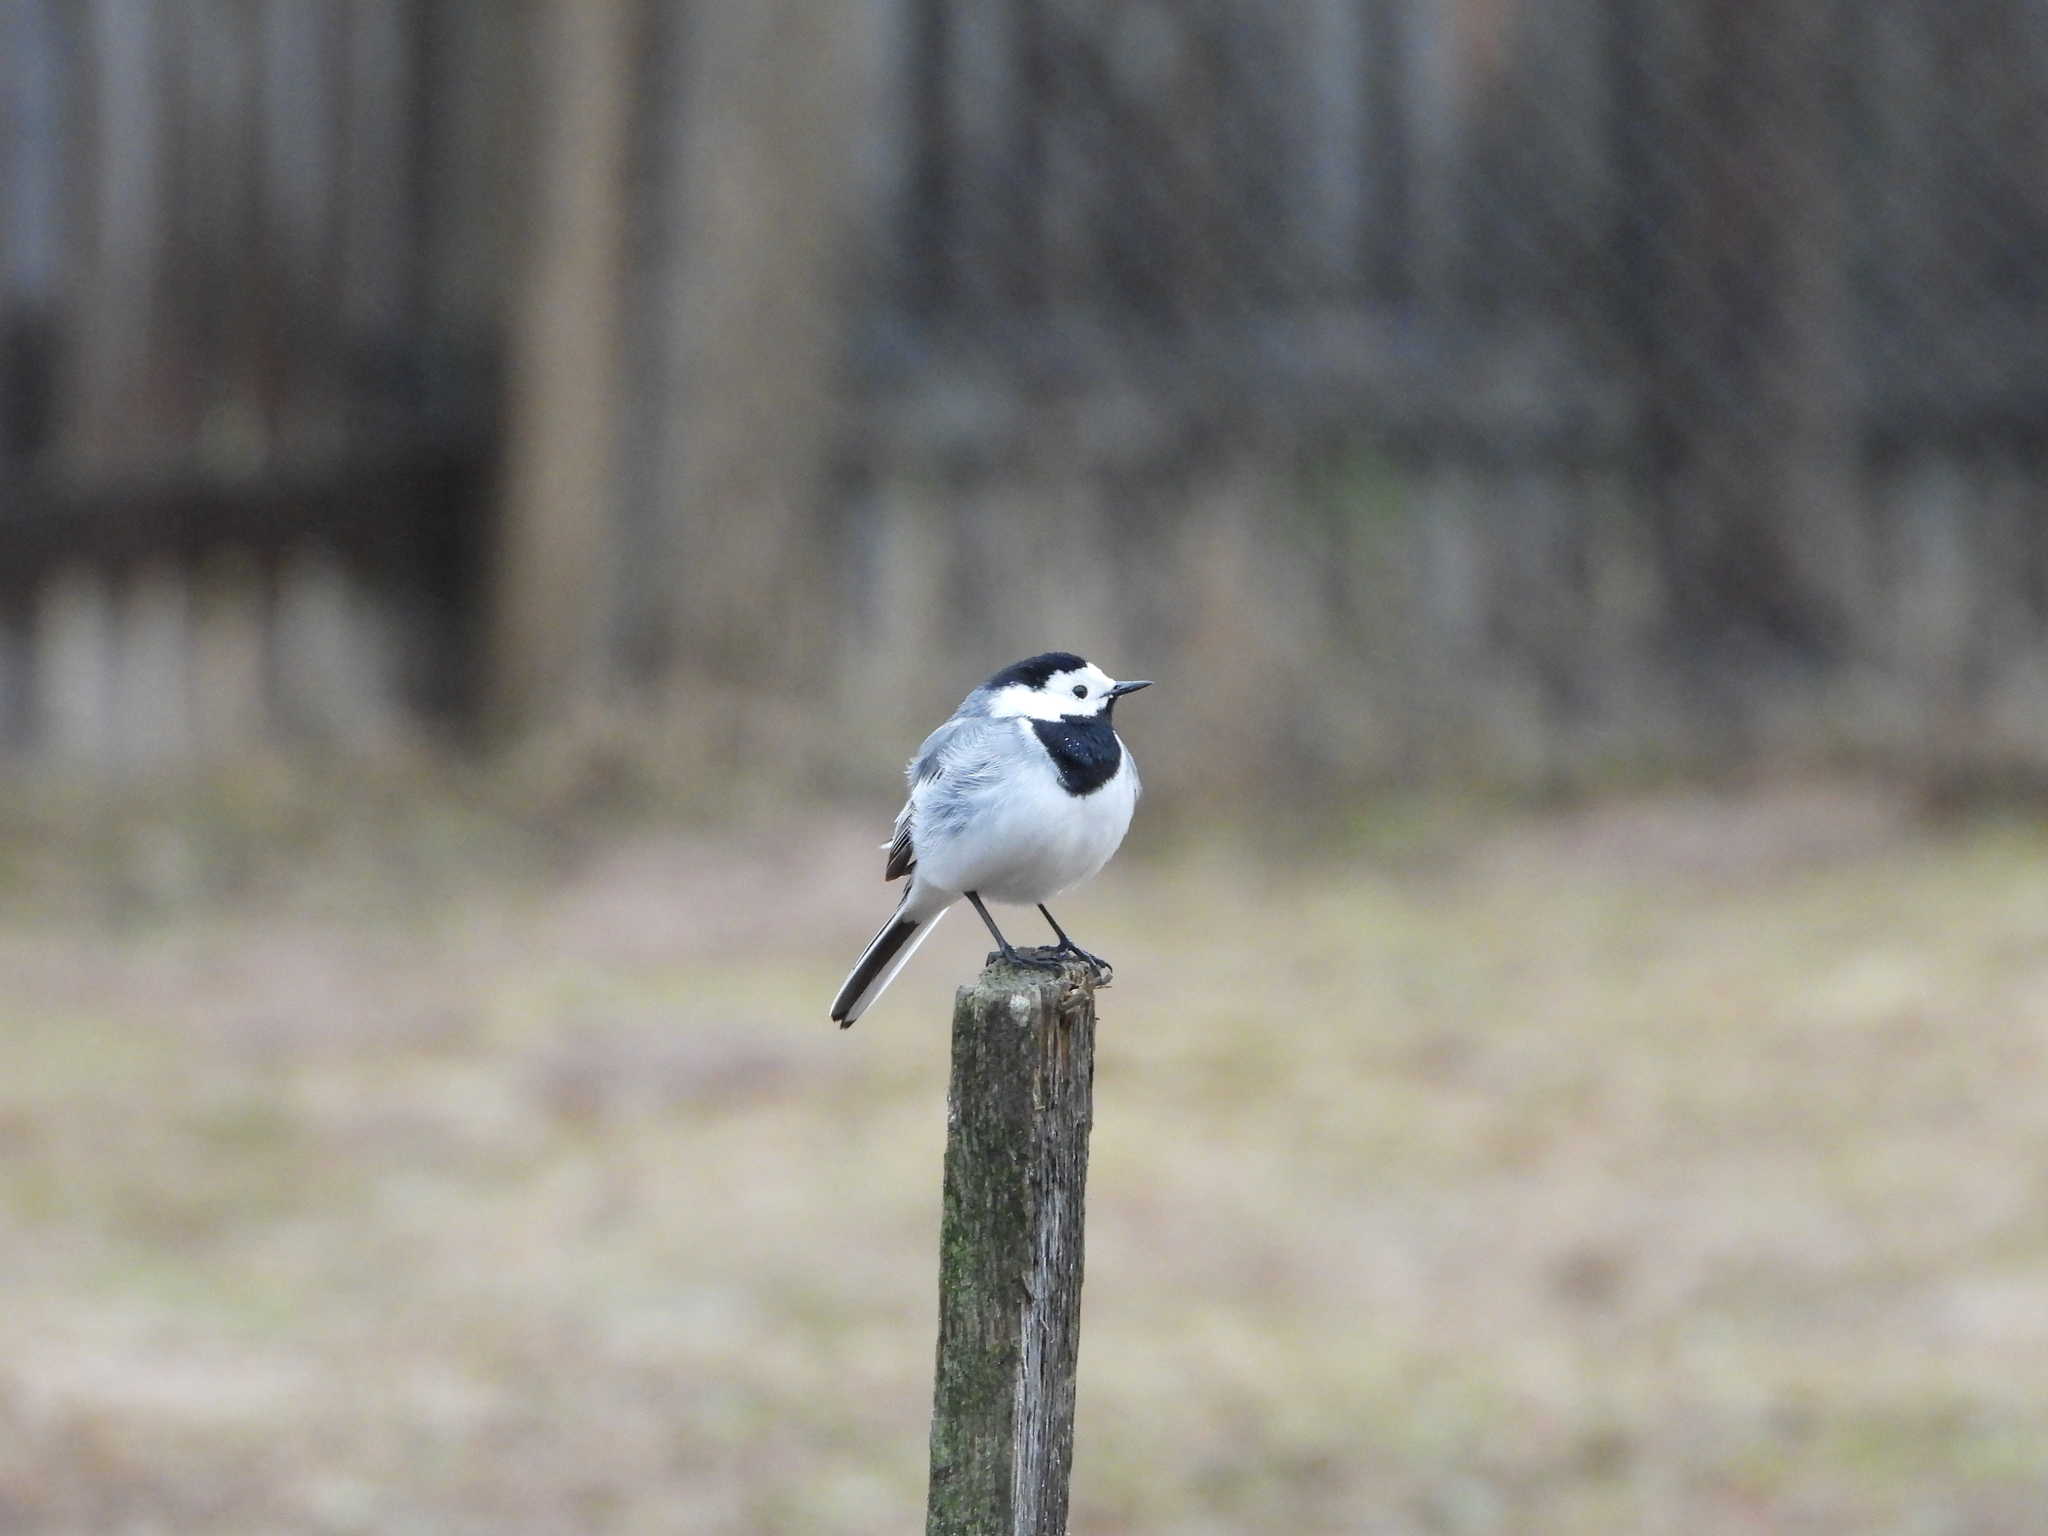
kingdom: Animalia
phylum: Chordata
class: Aves
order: Passeriformes
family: Motacillidae
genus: Motacilla
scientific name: Motacilla alba
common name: White wagtail
